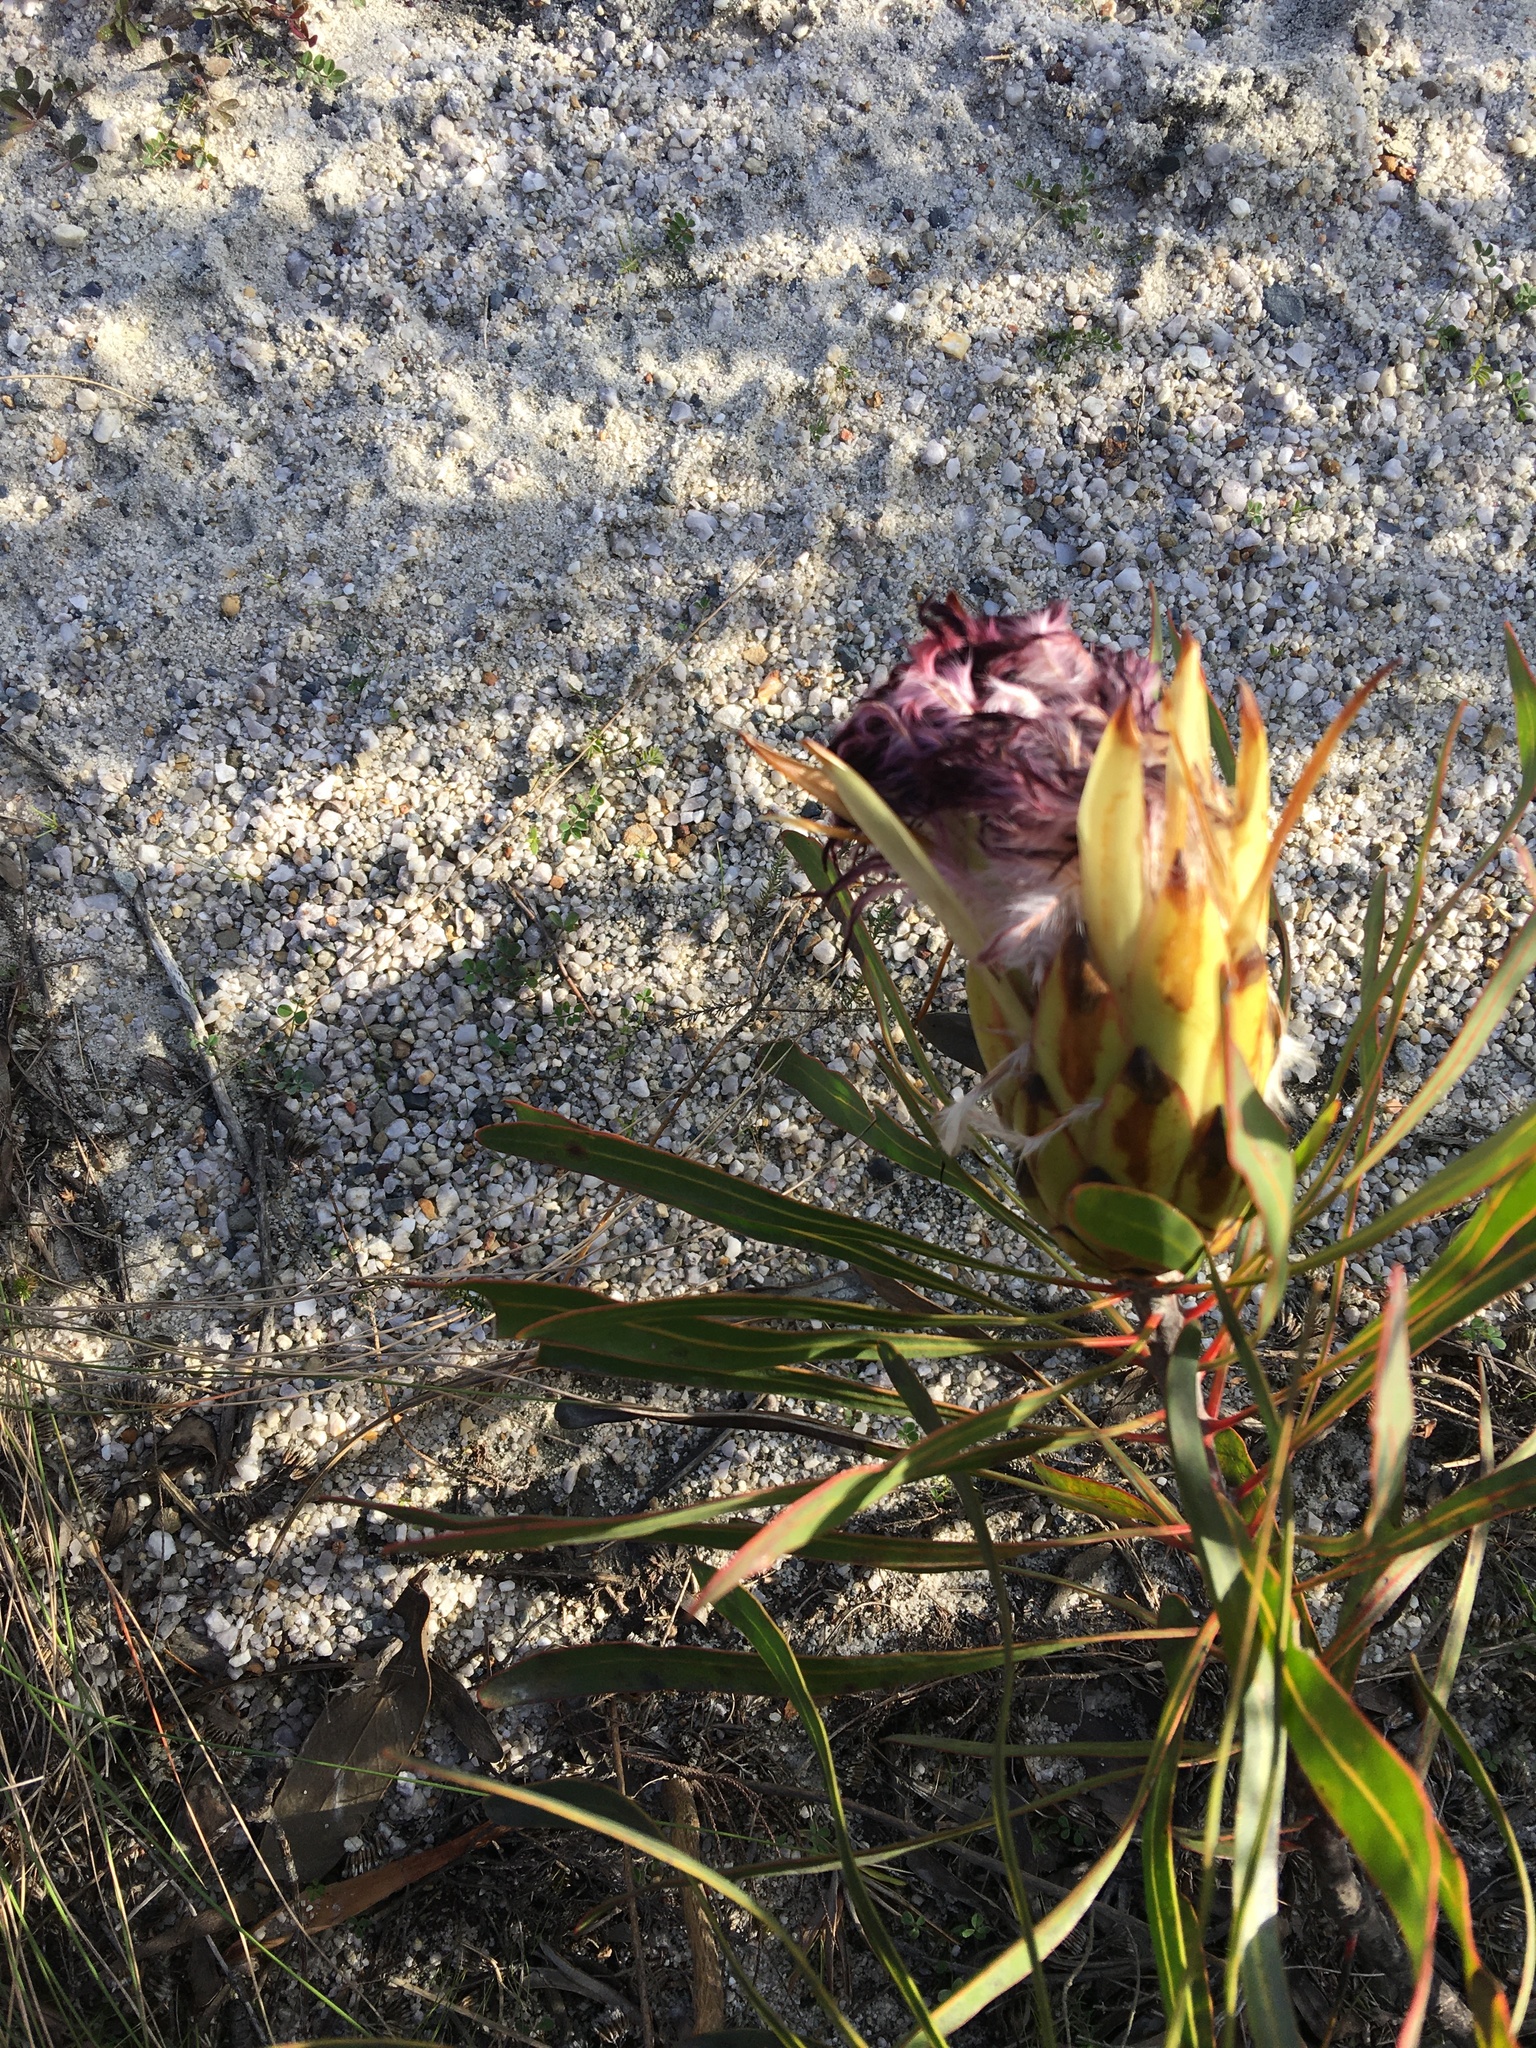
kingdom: Plantae
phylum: Tracheophyta
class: Magnoliopsida
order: Proteales
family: Proteaceae
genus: Protea
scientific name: Protea longifolia
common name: Long-leaf sugarbush
